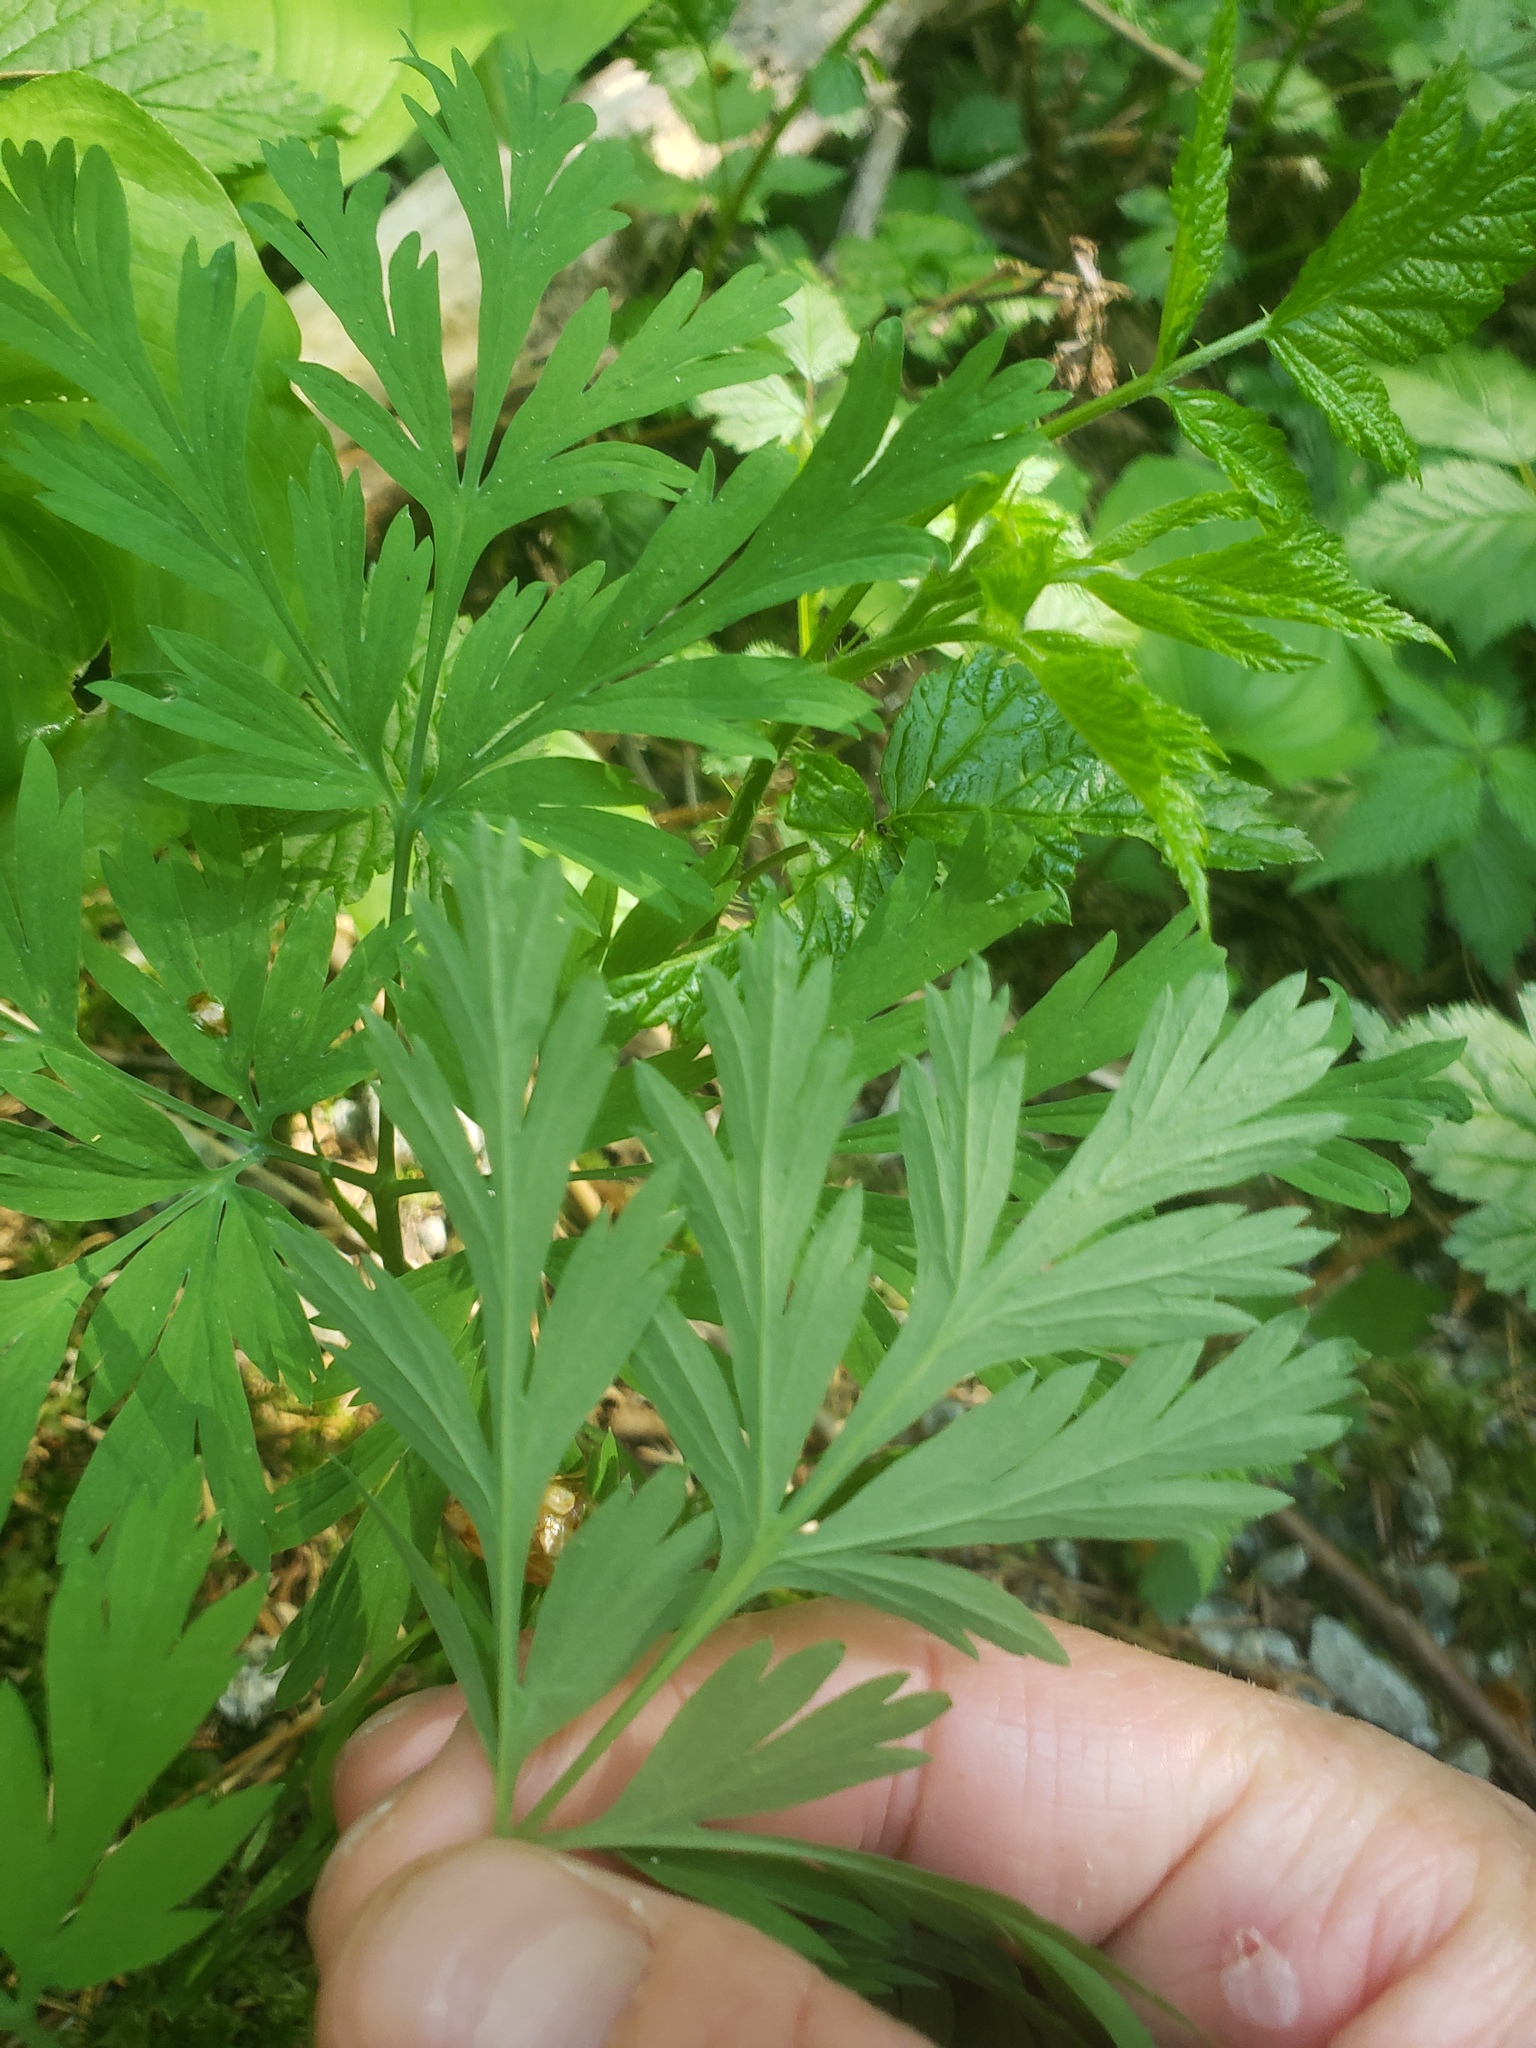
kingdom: Plantae
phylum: Tracheophyta
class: Magnoliopsida
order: Ranunculales
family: Papaveraceae
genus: Dicentra
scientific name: Dicentra formosa
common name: Bleeding-heart
